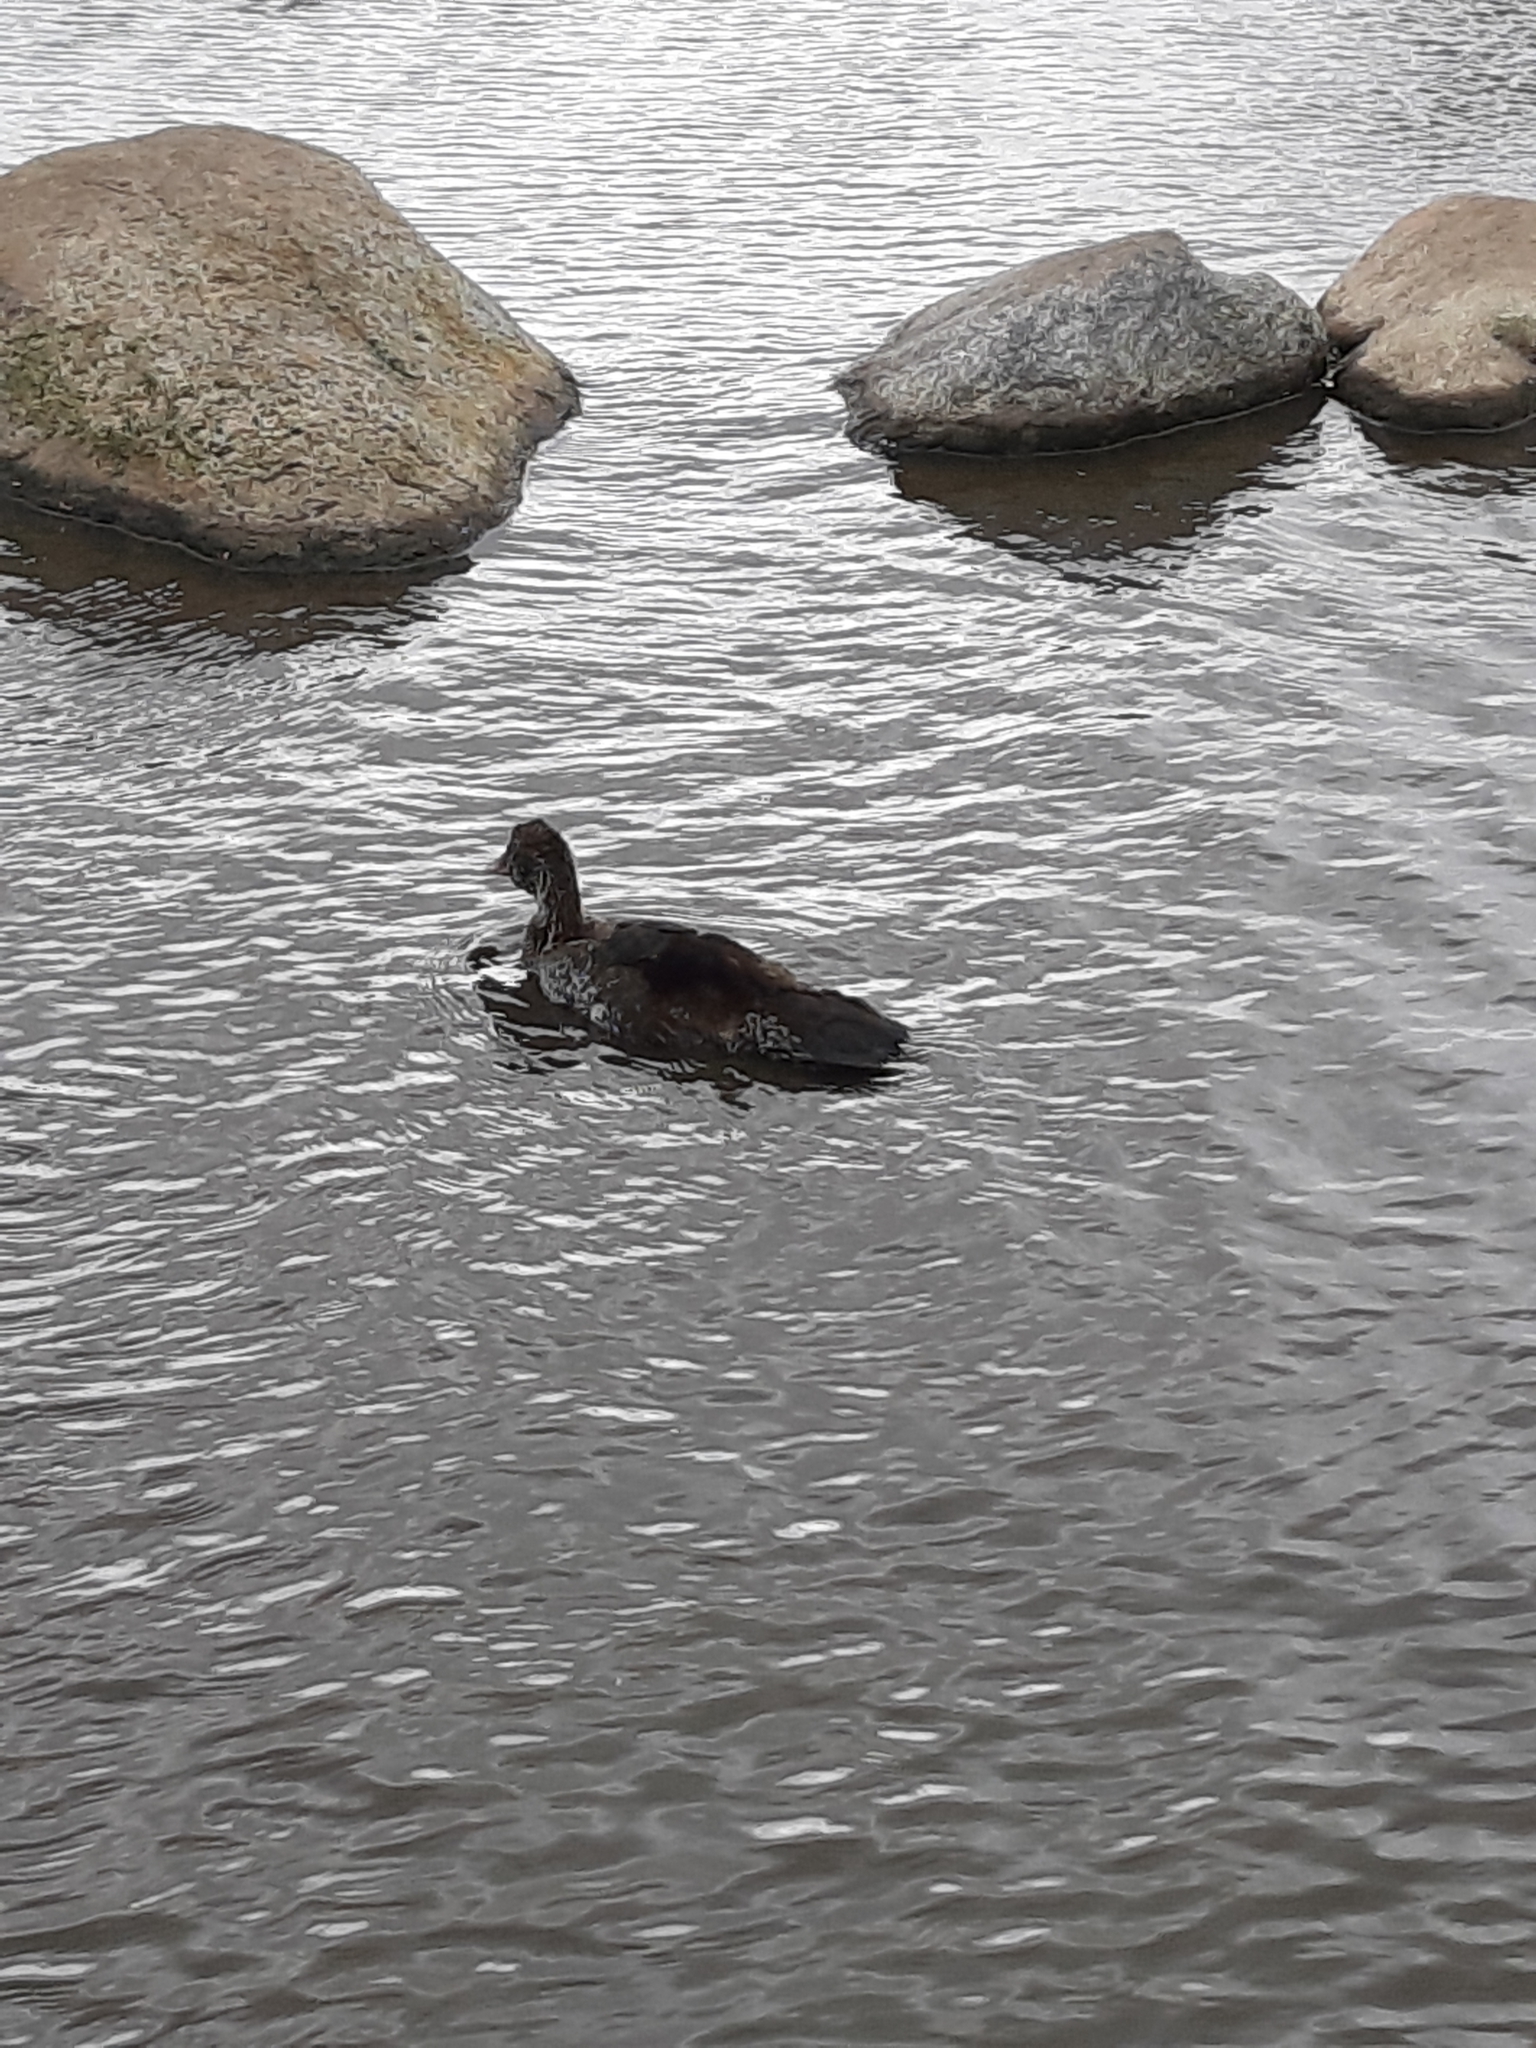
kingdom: Animalia
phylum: Chordata
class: Aves
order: Anseriformes
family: Anatidae
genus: Somateria
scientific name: Somateria mollissima
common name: Common eider
